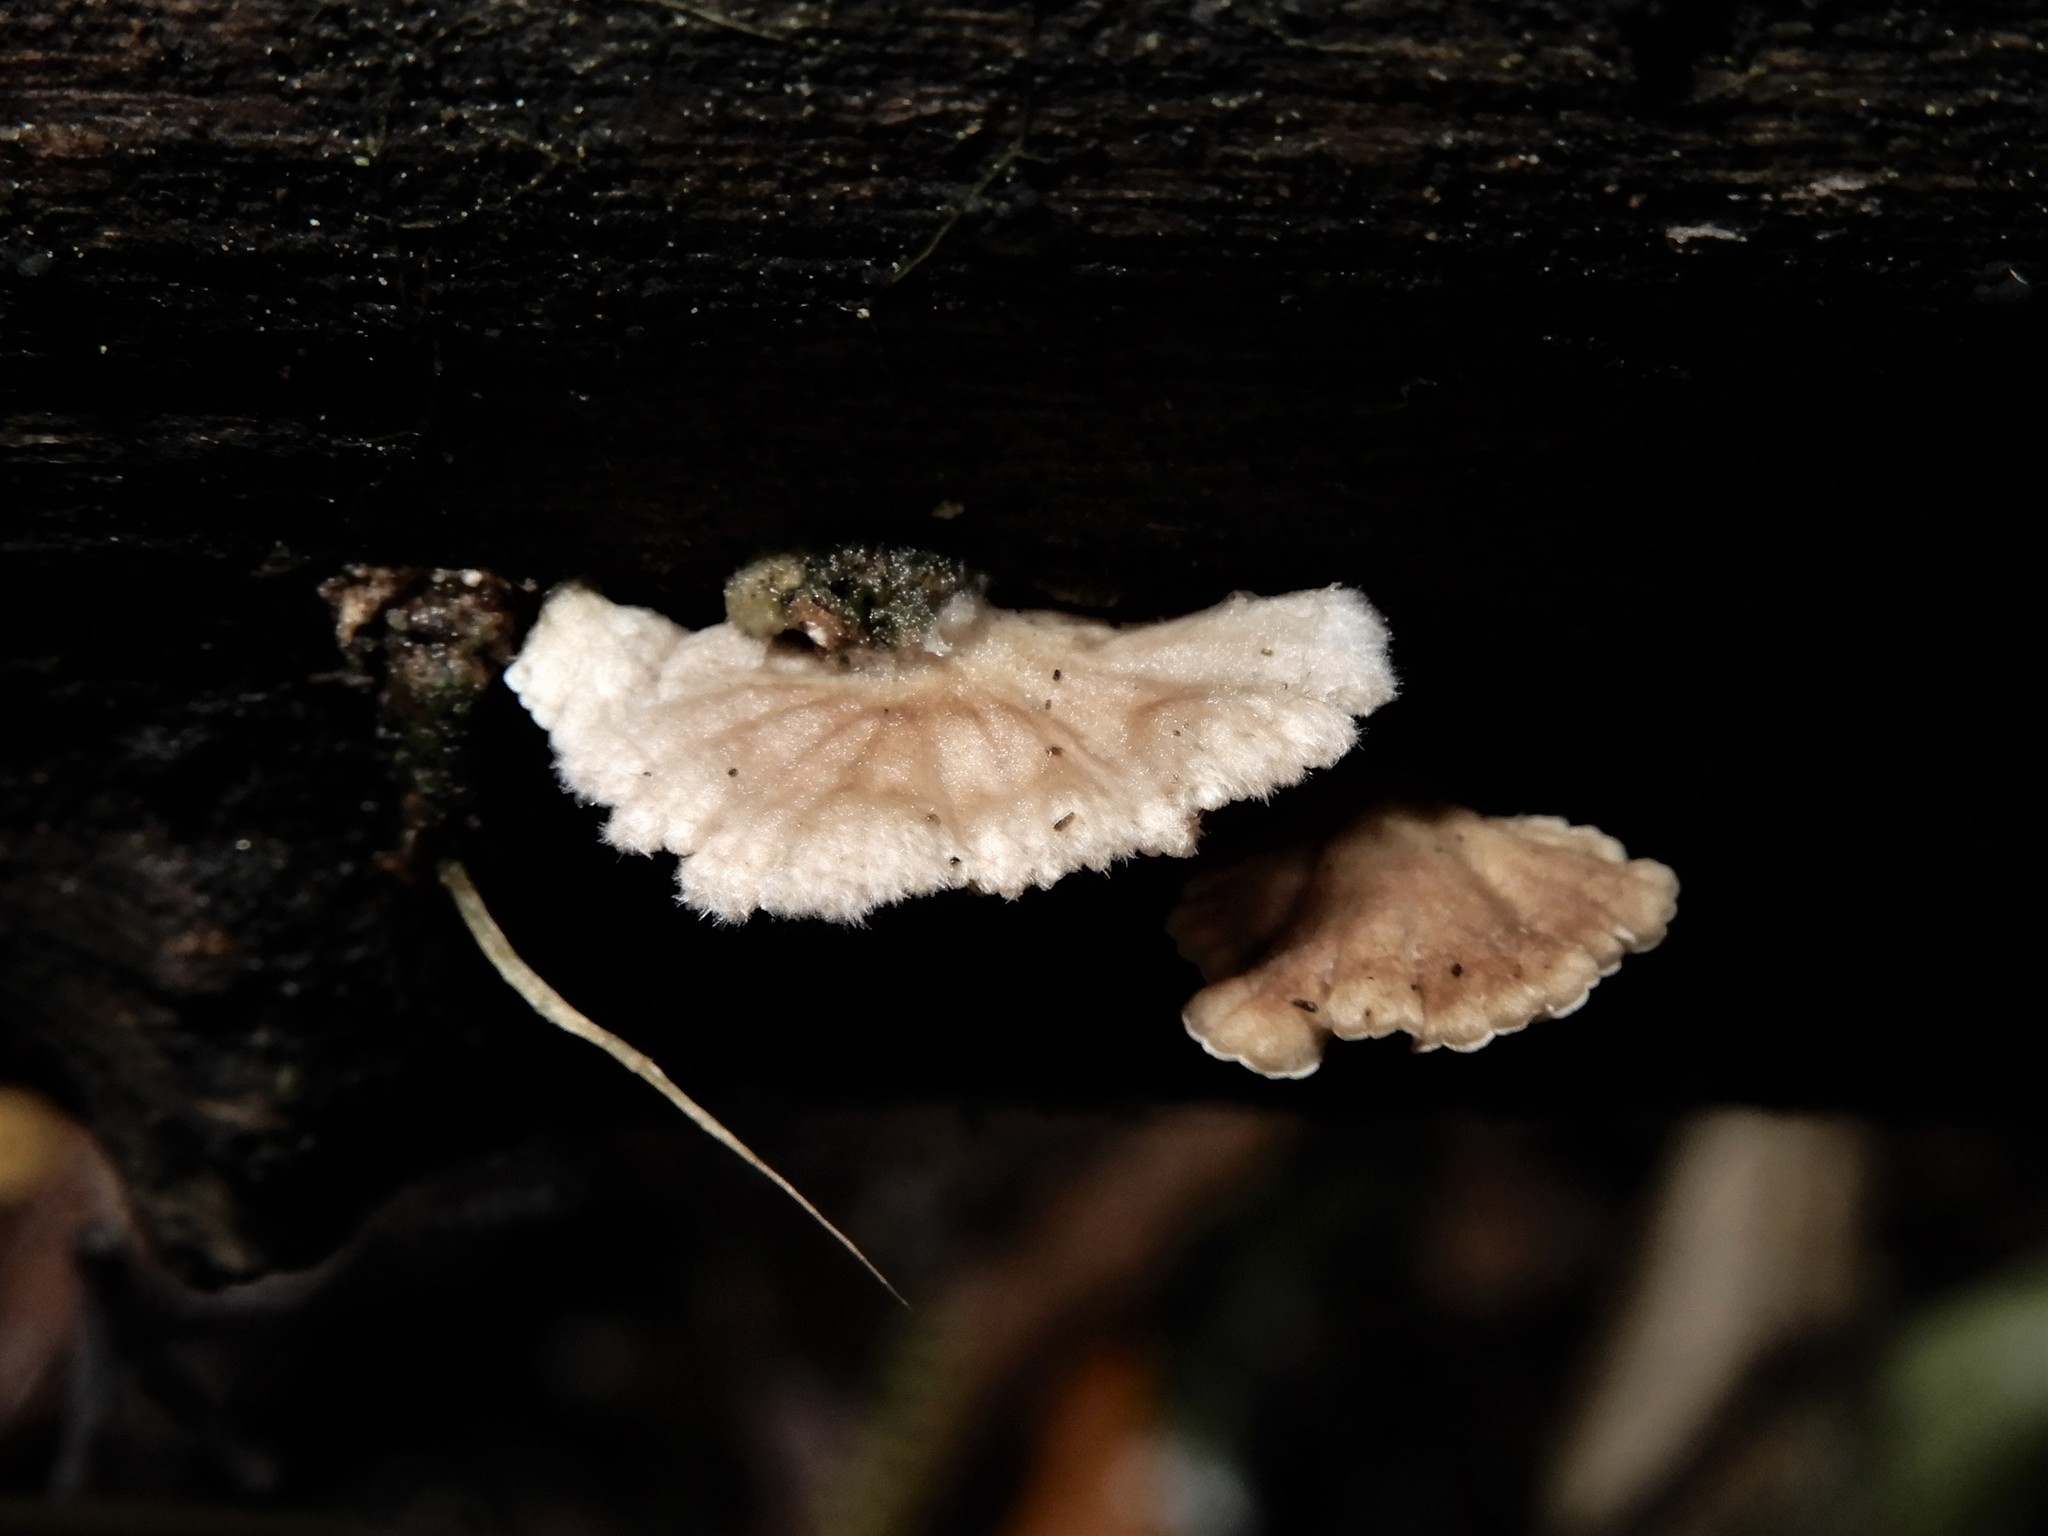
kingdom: Fungi
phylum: Basidiomycota
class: Agaricomycetes
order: Agaricales
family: Schizophyllaceae
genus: Schizophyllum
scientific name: Schizophyllum commune
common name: Common porecrust
